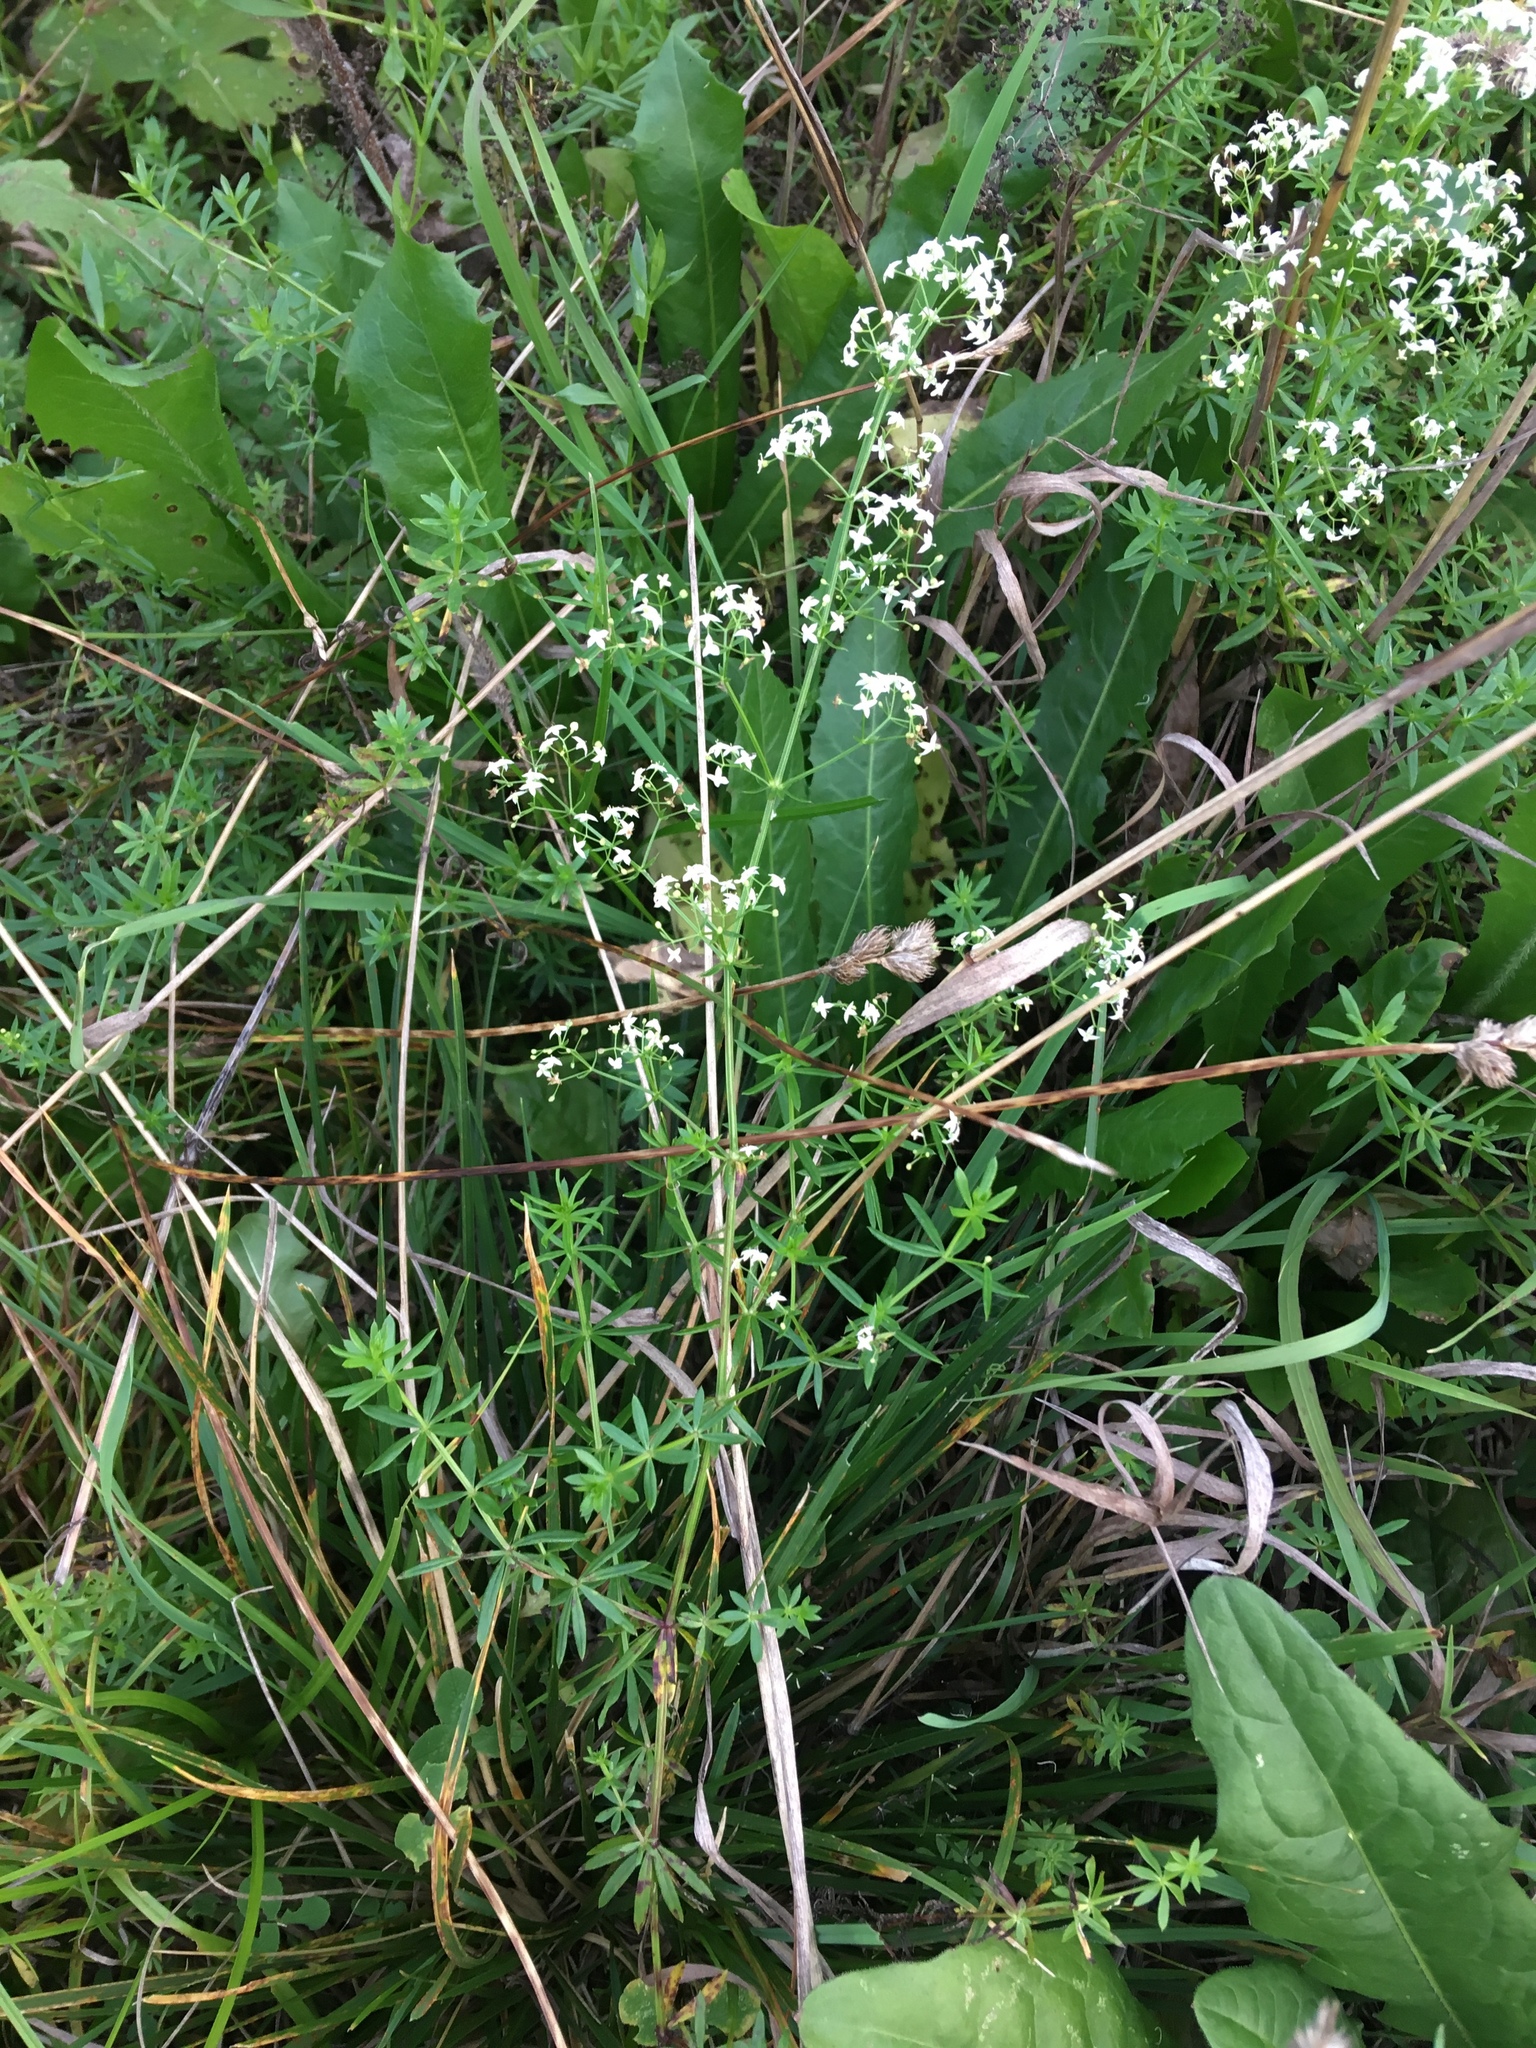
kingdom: Plantae
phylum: Tracheophyta
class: Magnoliopsida
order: Gentianales
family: Rubiaceae
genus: Galium
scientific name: Galium mollugo
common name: Hedge bedstraw
